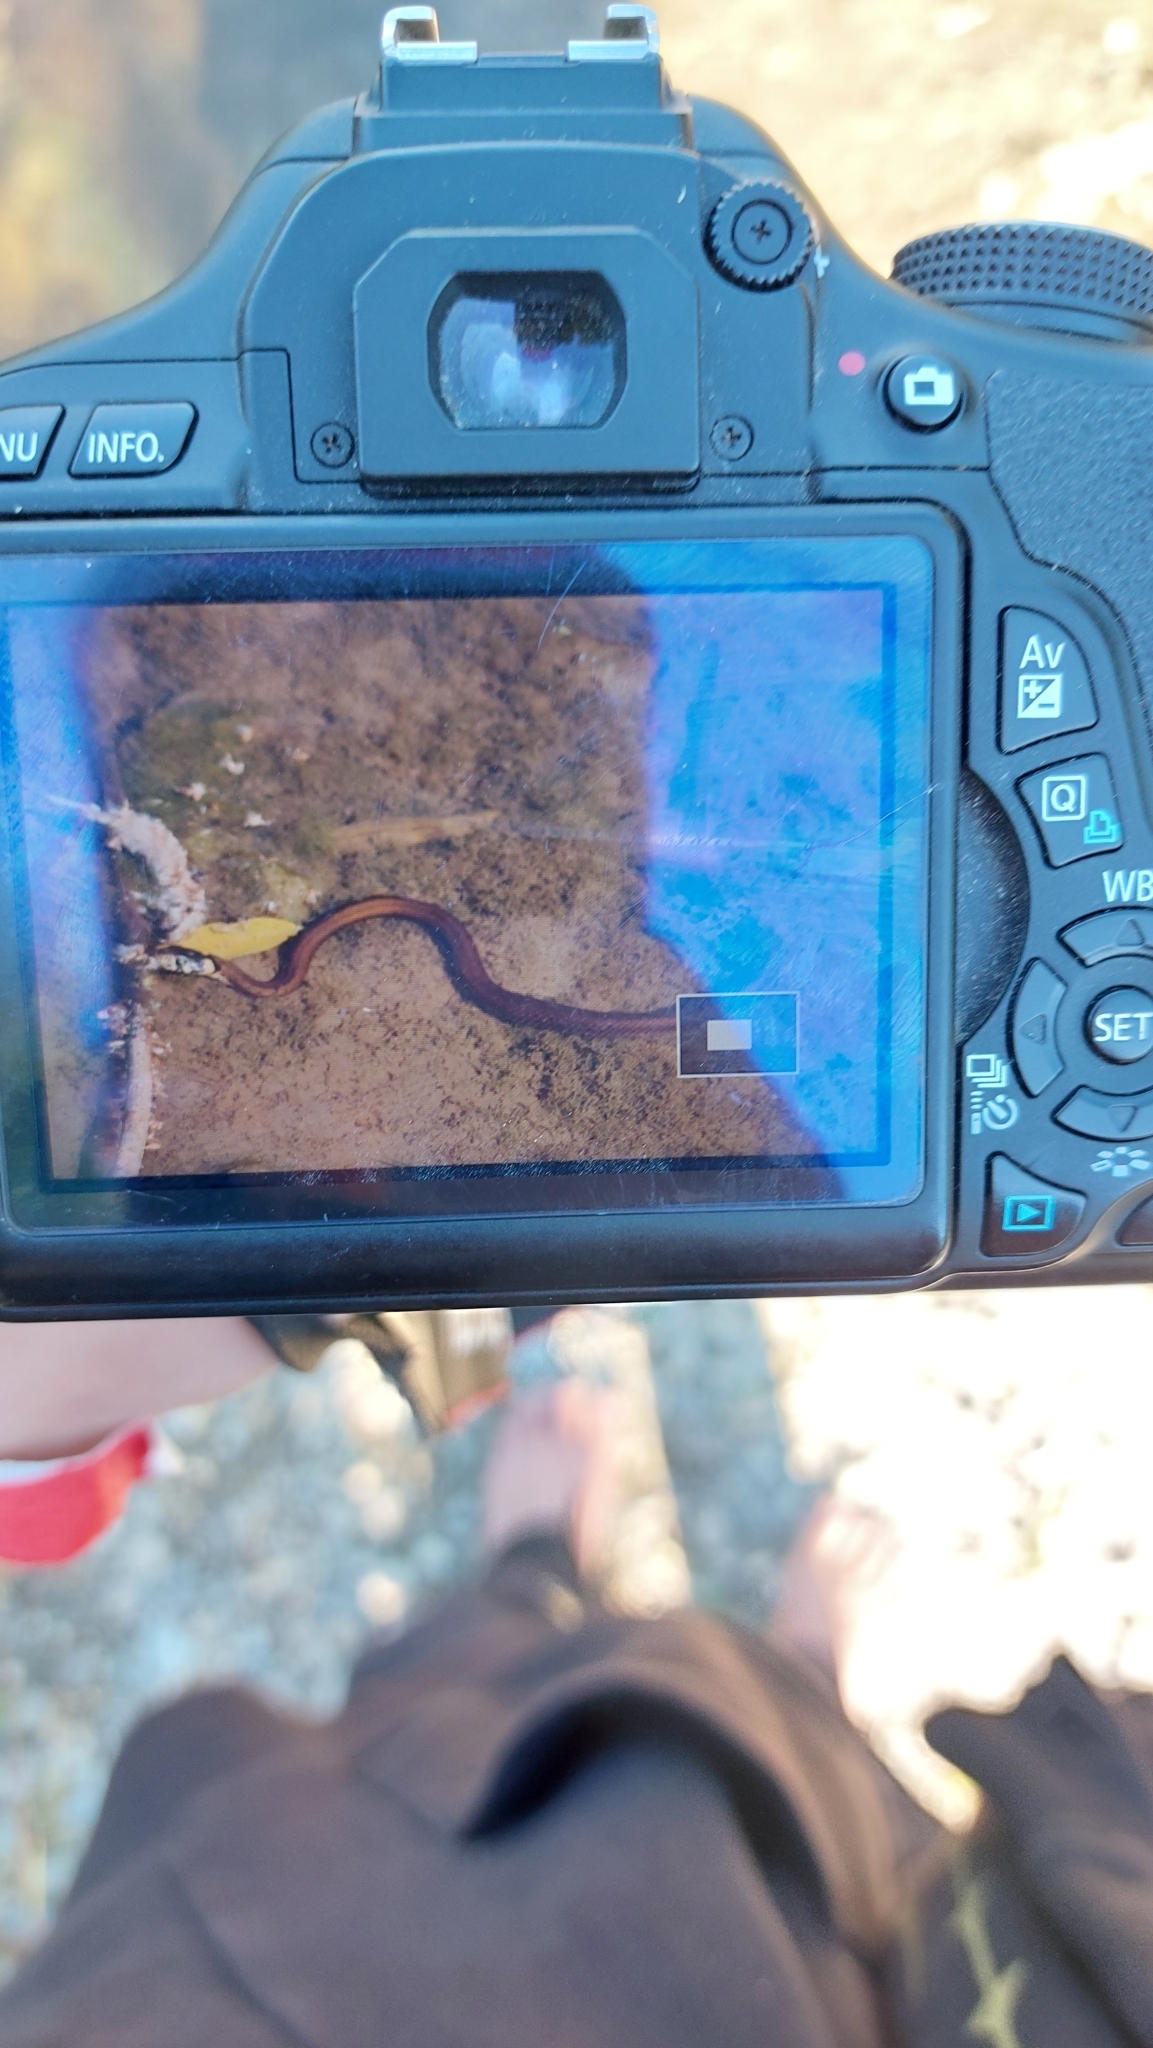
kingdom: Animalia
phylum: Chordata
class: Squamata
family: Colubridae
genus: Natrix
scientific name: Natrix natrix
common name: Grass snake
